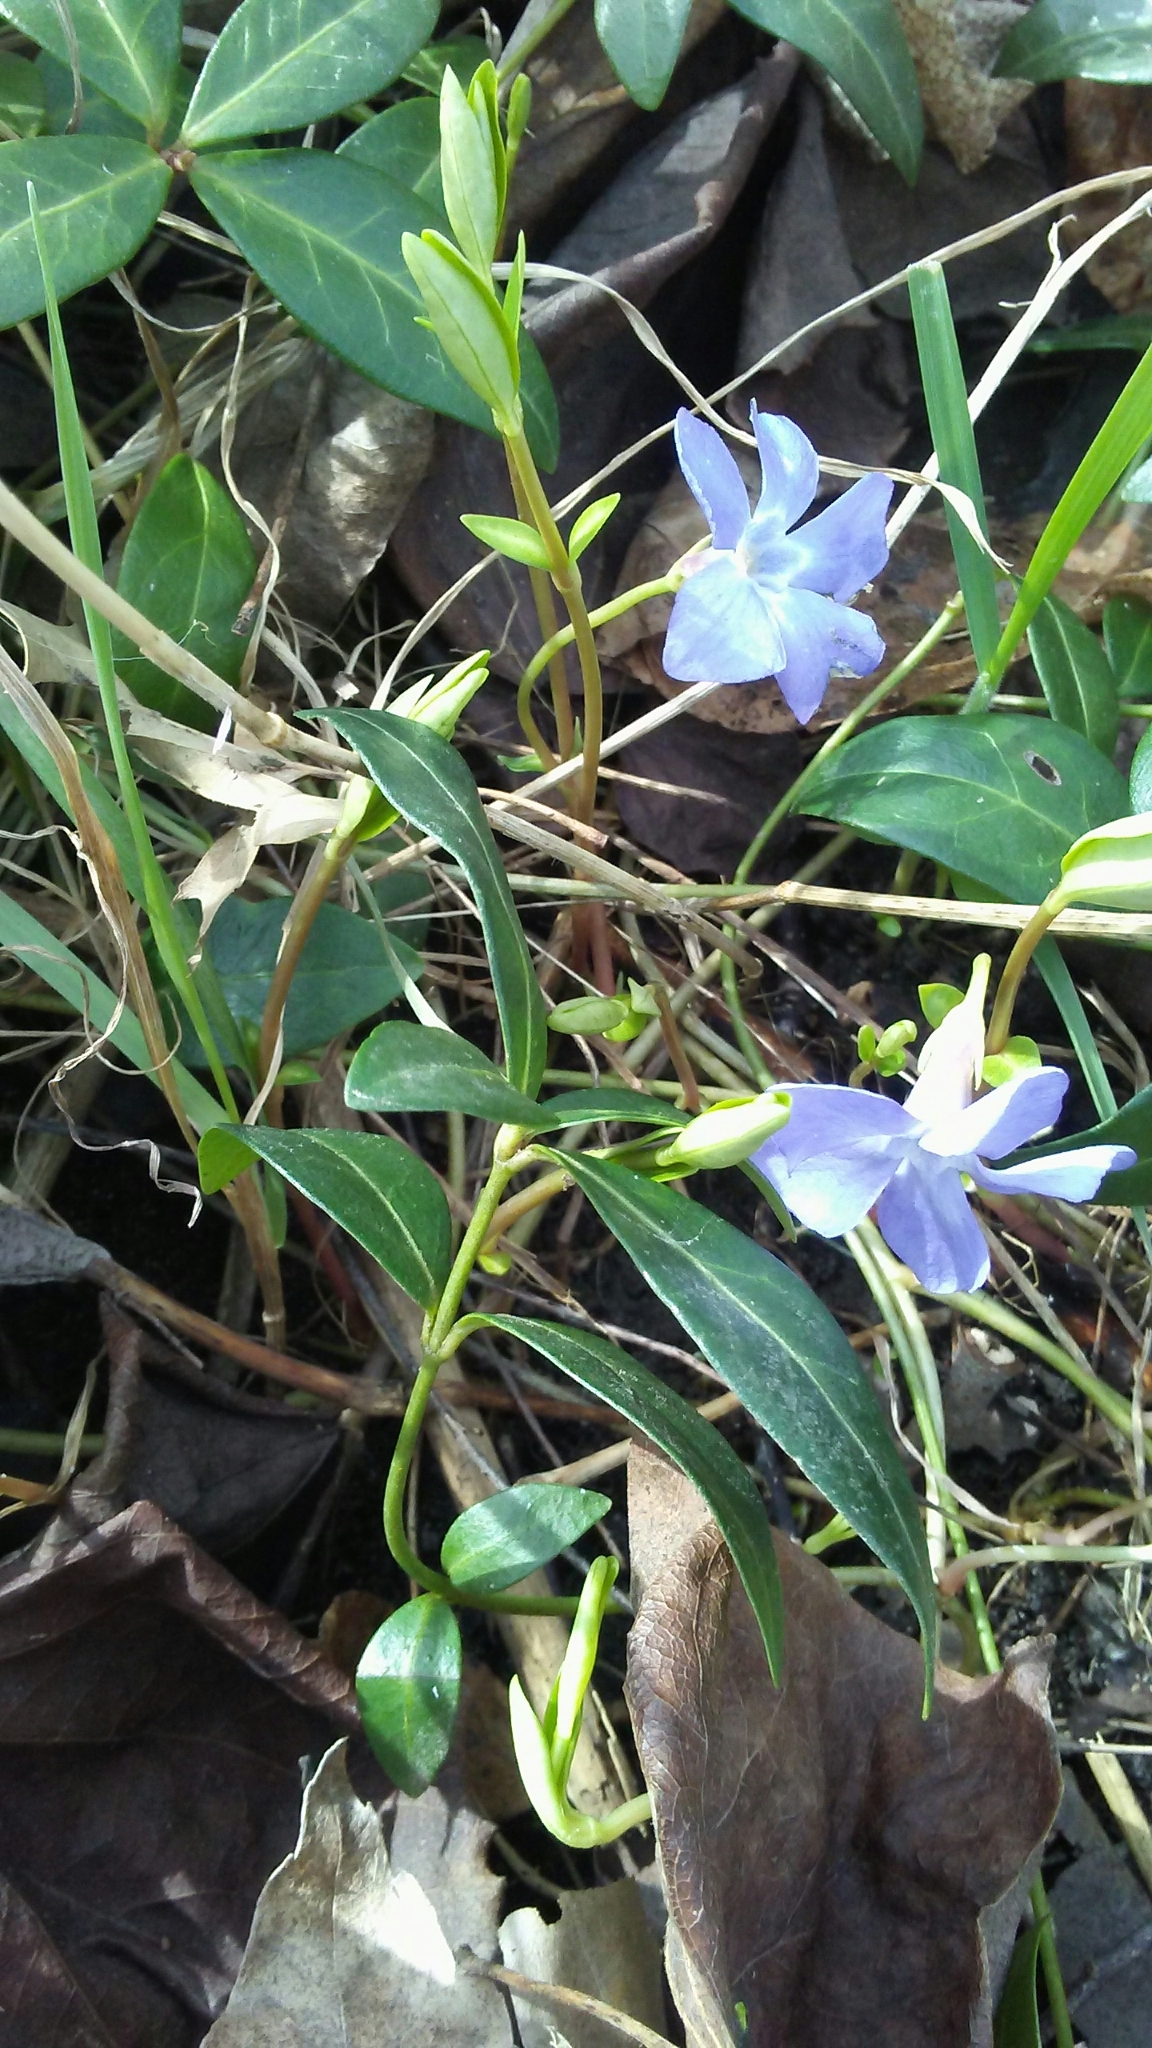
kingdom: Plantae
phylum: Tracheophyta
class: Magnoliopsida
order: Gentianales
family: Apocynaceae
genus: Vinca
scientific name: Vinca minor
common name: Lesser periwinkle
